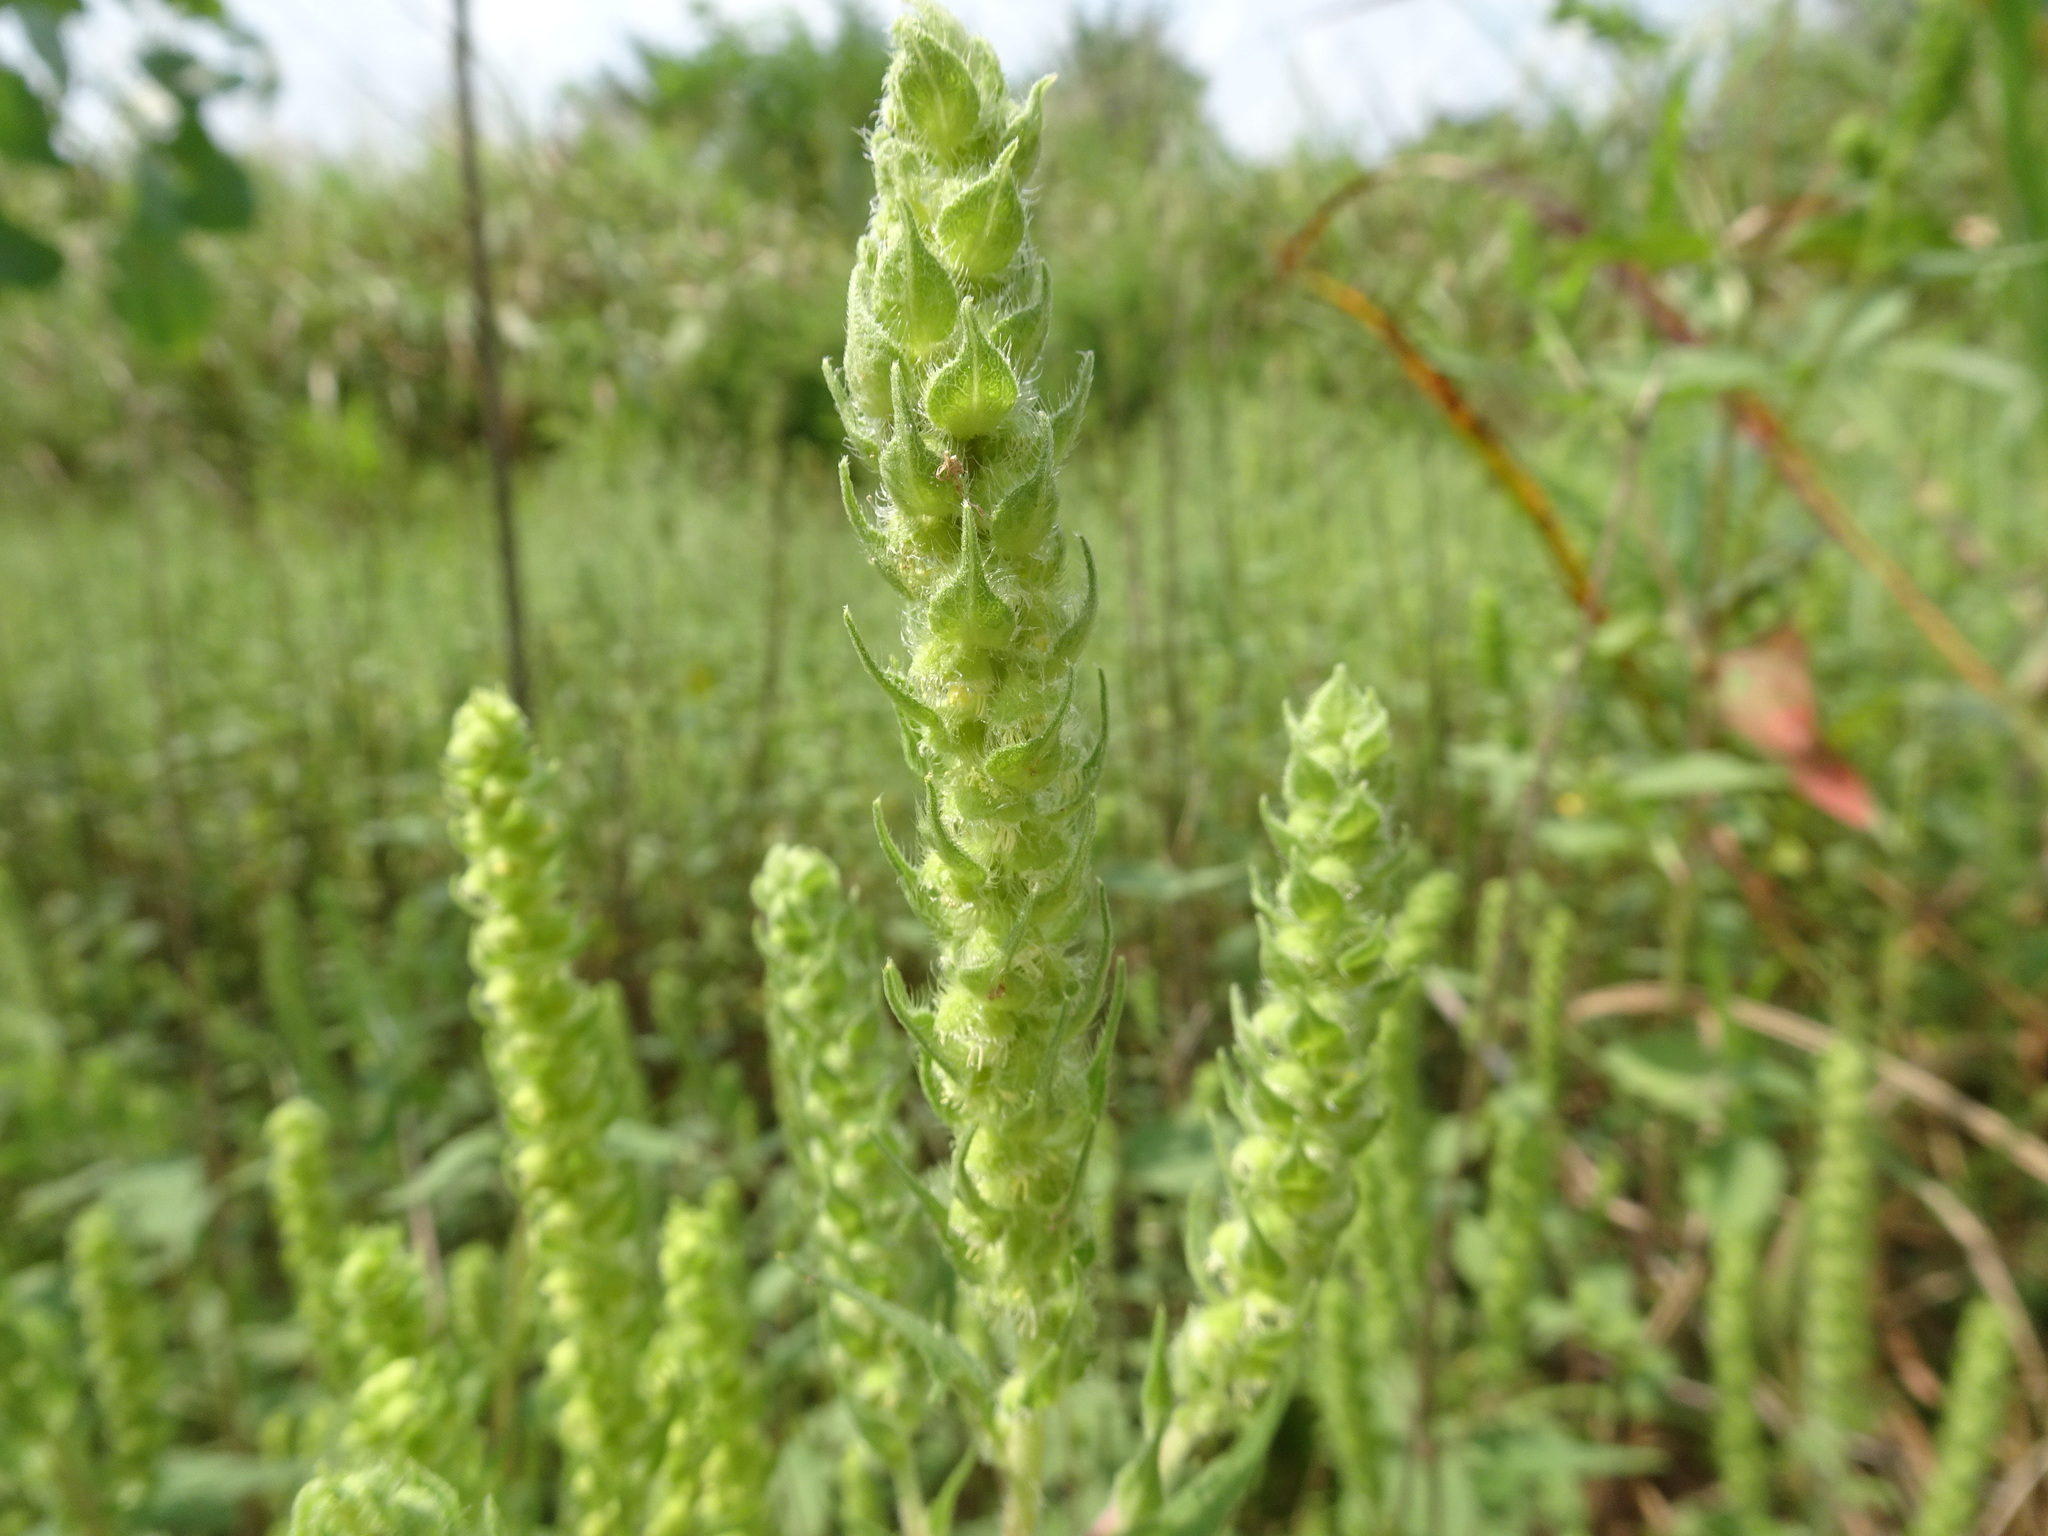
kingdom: Plantae
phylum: Tracheophyta
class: Magnoliopsida
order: Asterales
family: Asteraceae
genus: Iva
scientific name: Iva annua
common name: Marsh-elder
